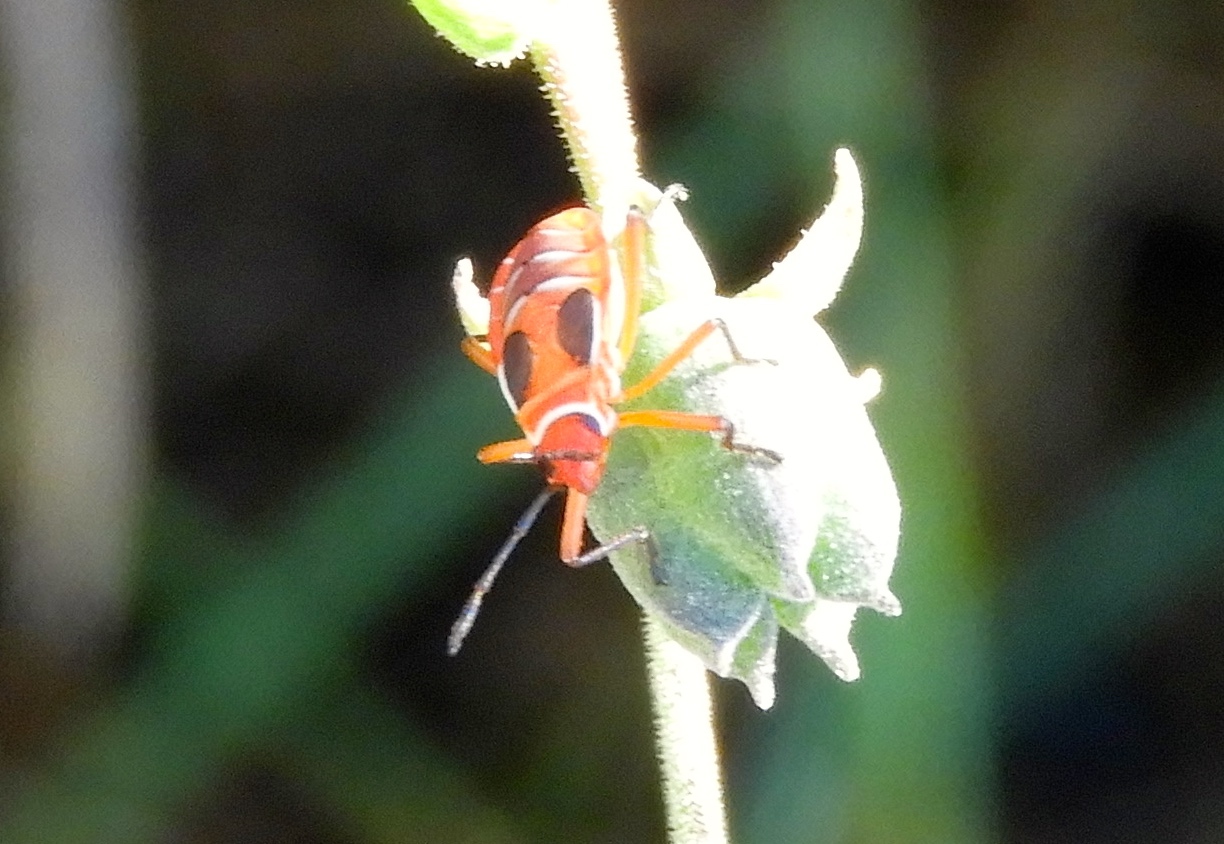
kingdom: Animalia
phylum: Arthropoda
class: Insecta
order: Hemiptera
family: Pyrrhocoridae
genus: Dysdercus
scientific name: Dysdercus
